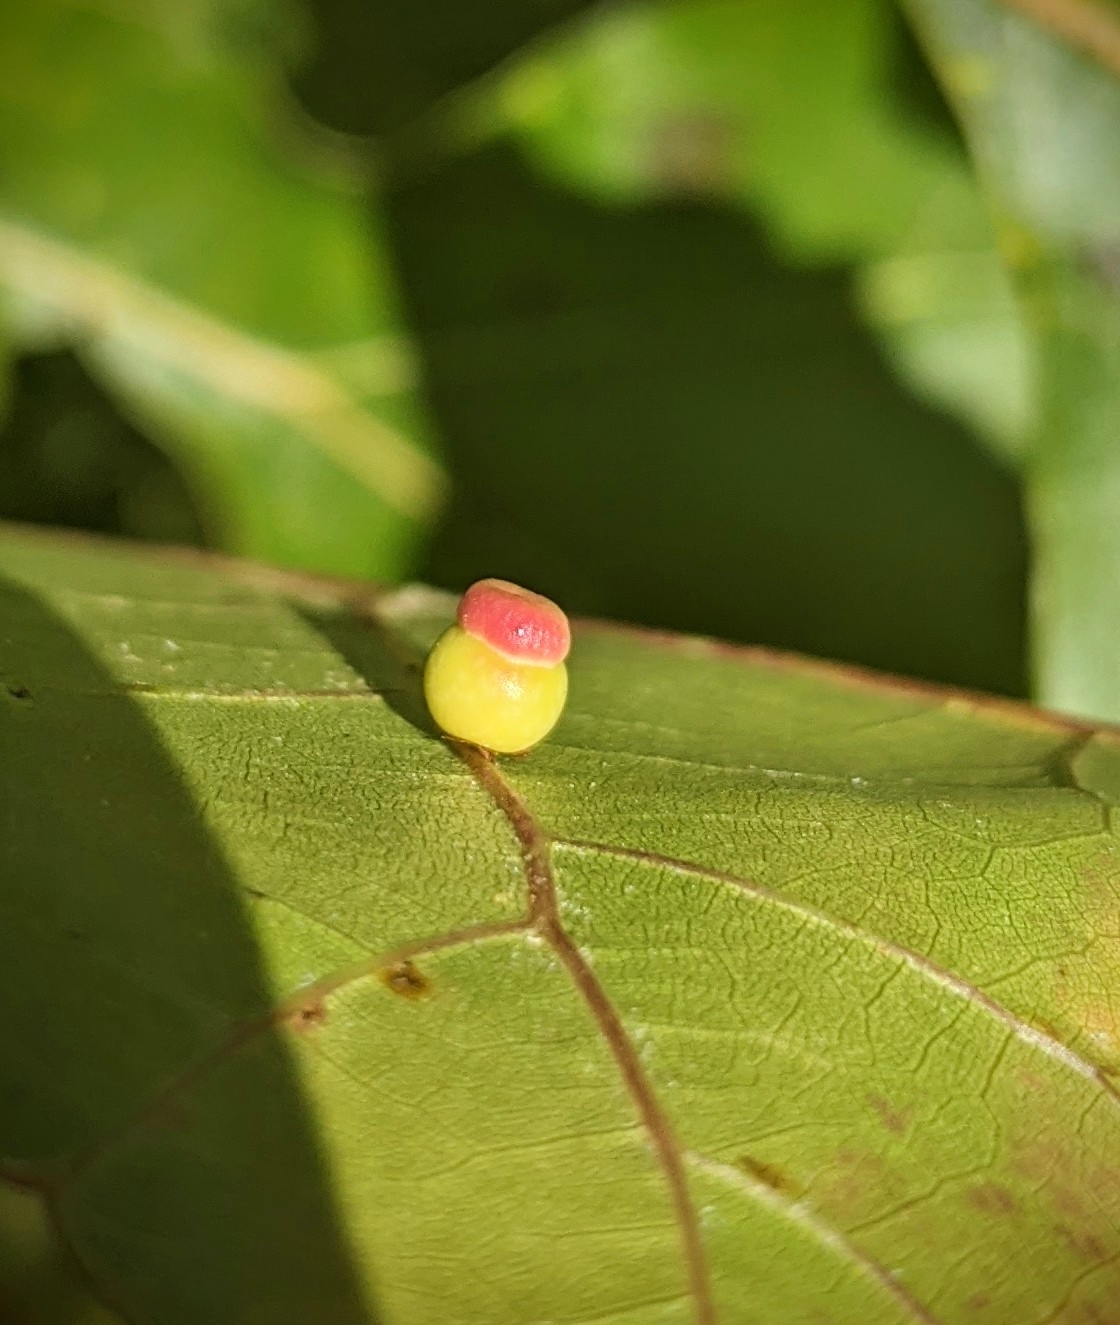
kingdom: Animalia
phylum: Arthropoda
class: Insecta
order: Hymenoptera
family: Cynipidae
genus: Kokkocynips
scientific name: Kokkocynips rileyi
